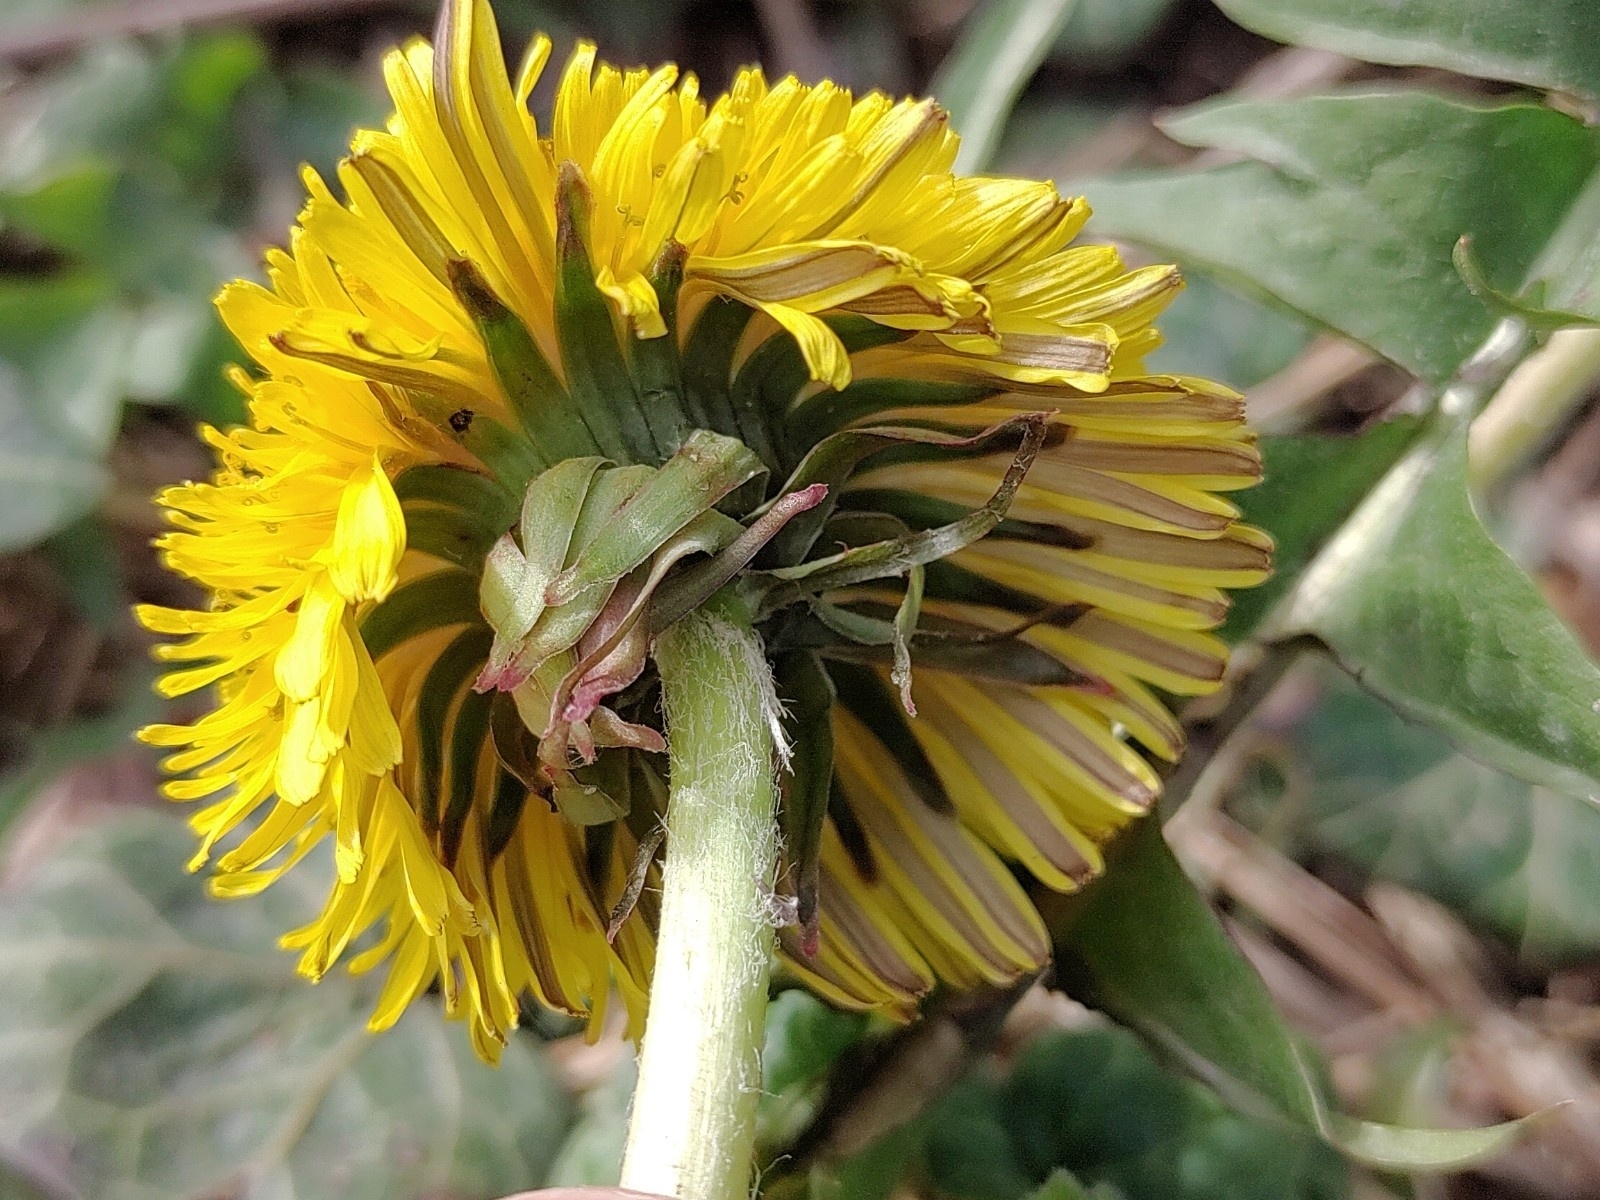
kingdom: Plantae
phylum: Tracheophyta
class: Magnoliopsida
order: Asterales
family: Asteraceae
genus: Taraxacum
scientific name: Taraxacum
